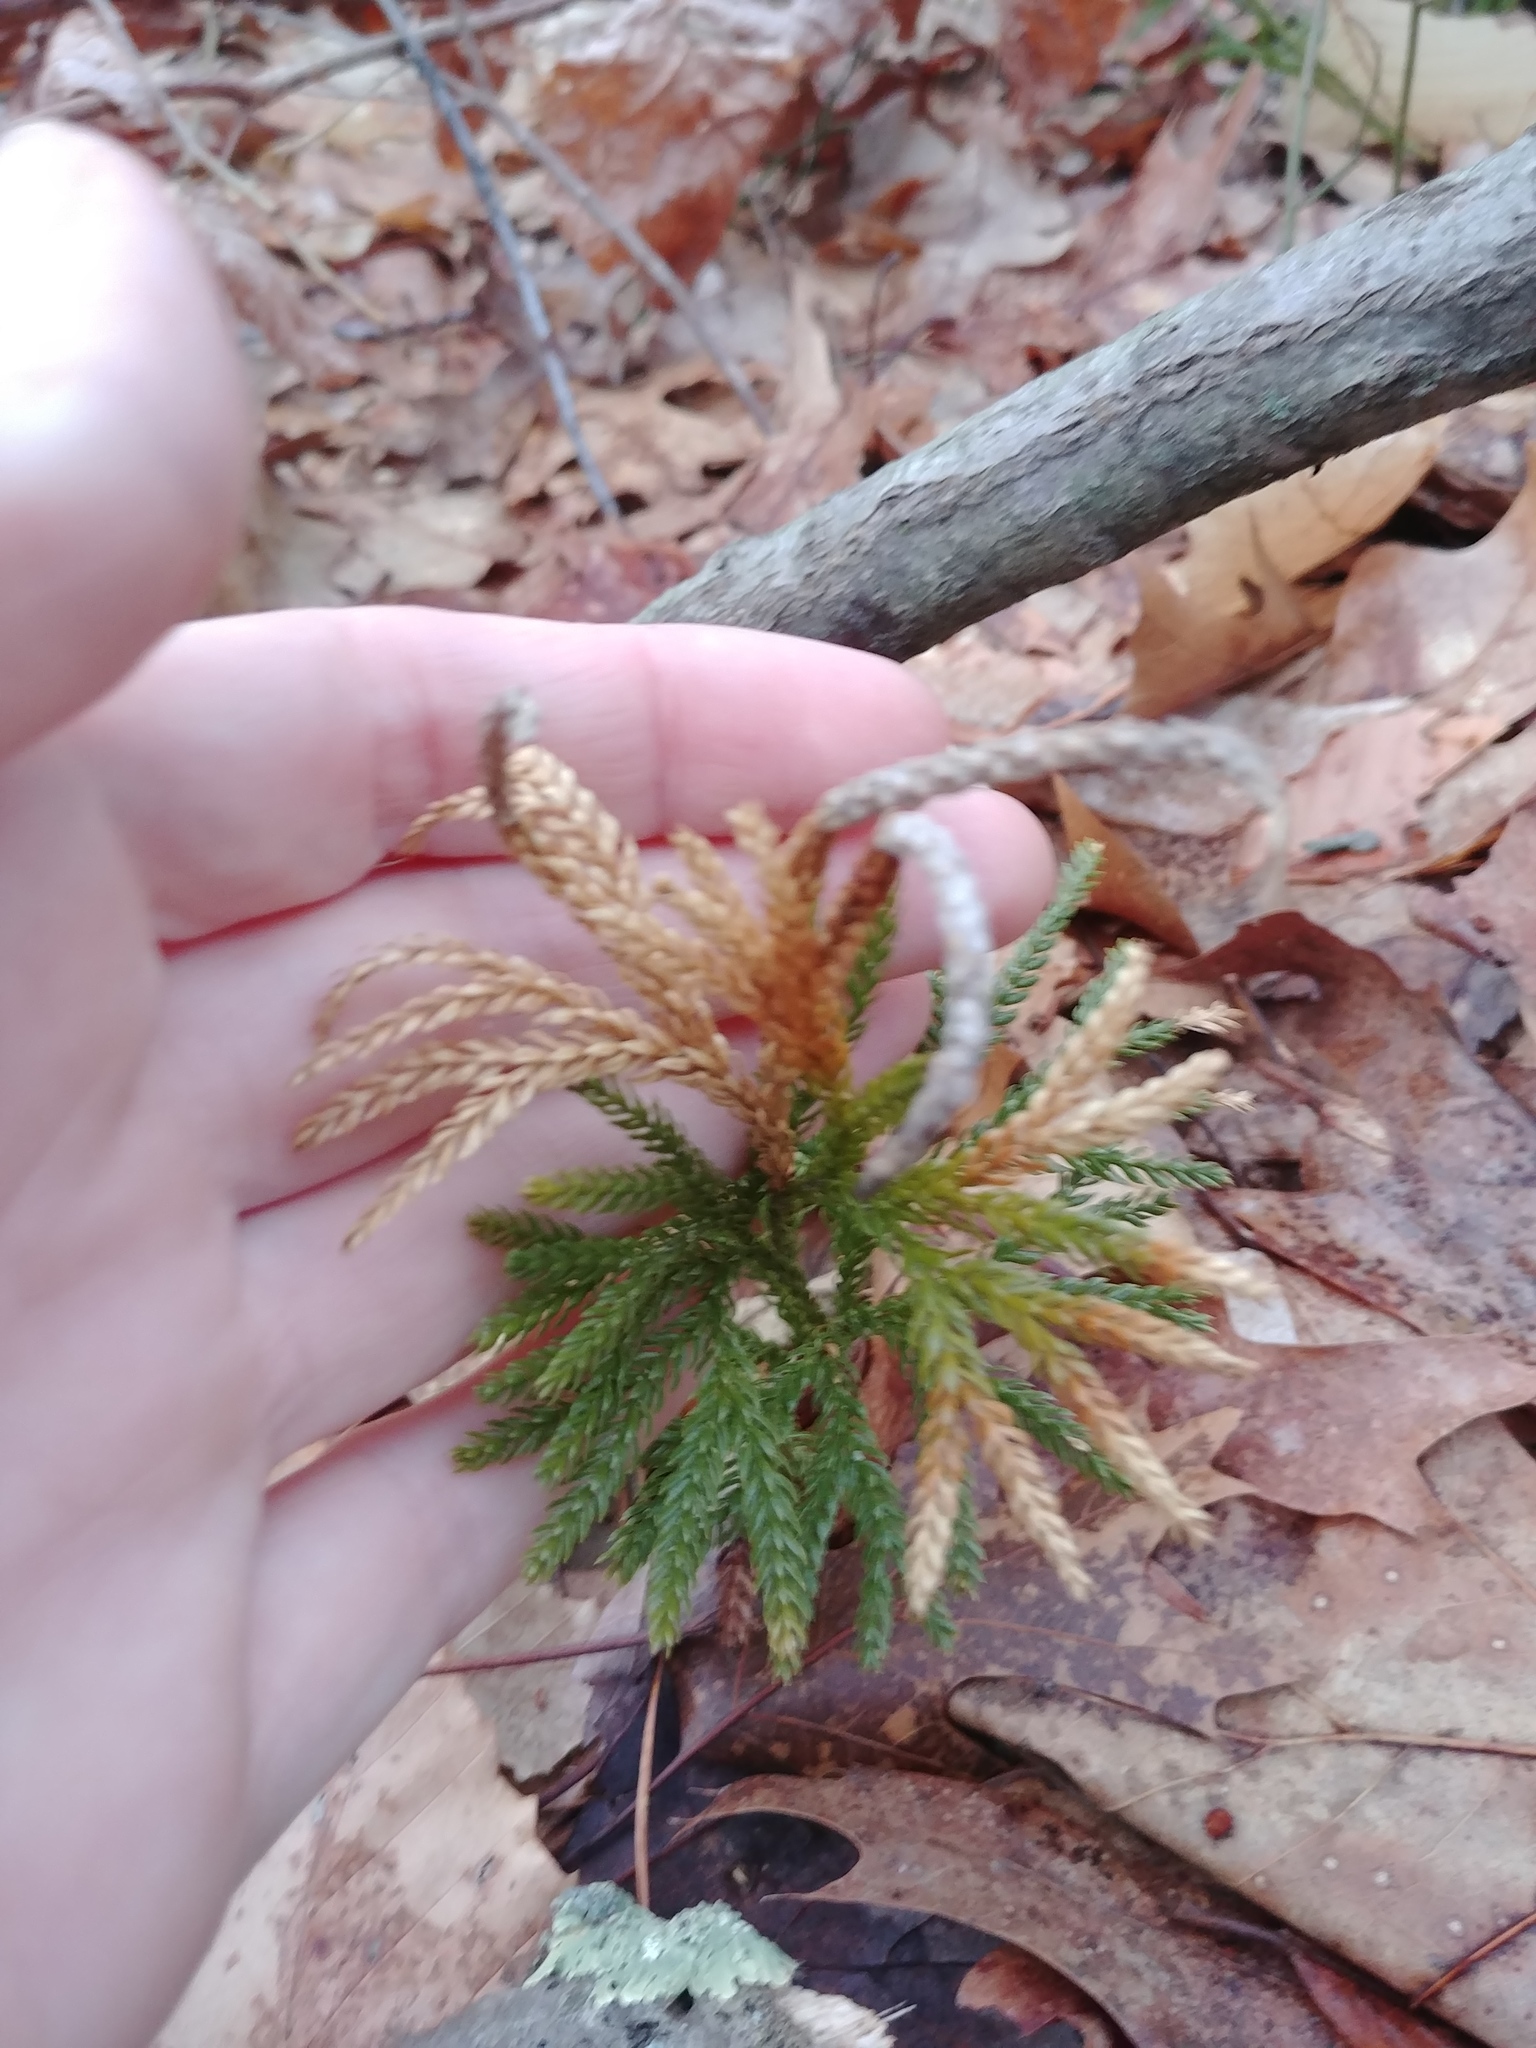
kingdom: Plantae
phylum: Tracheophyta
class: Lycopodiopsida
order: Lycopodiales
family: Lycopodiaceae
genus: Dendrolycopodium
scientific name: Dendrolycopodium obscurum
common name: Common ground-pine
